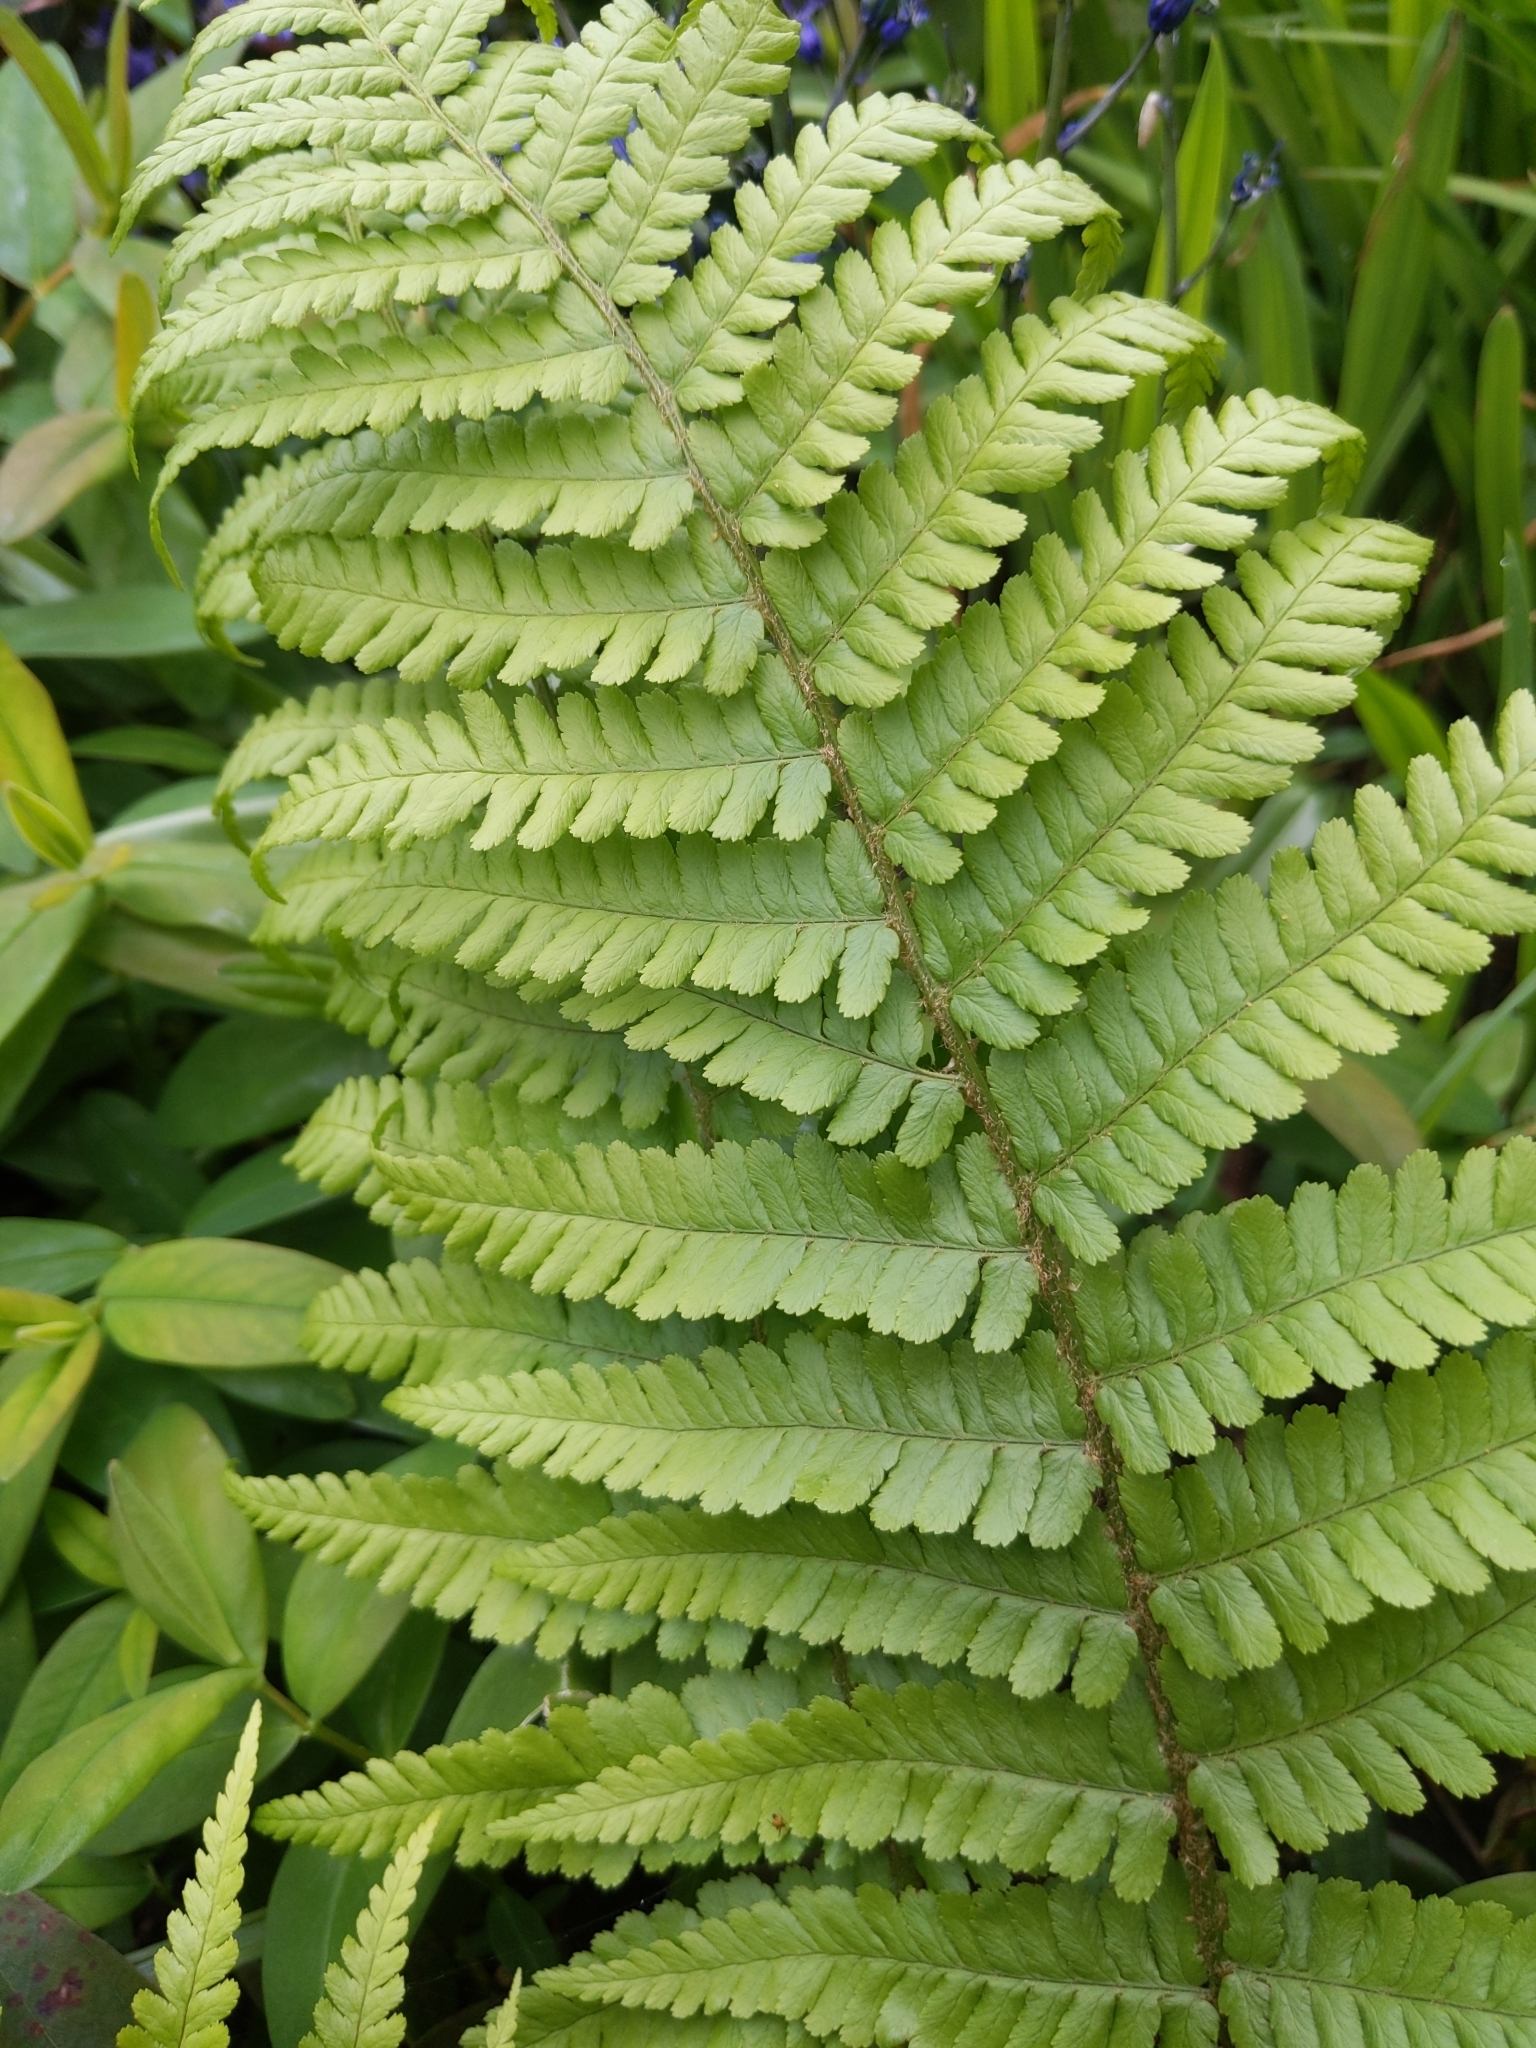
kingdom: Plantae
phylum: Tracheophyta
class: Polypodiopsida
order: Polypodiales
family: Dryopteridaceae
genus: Dryopteris
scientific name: Dryopteris filix-mas
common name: Male fern
